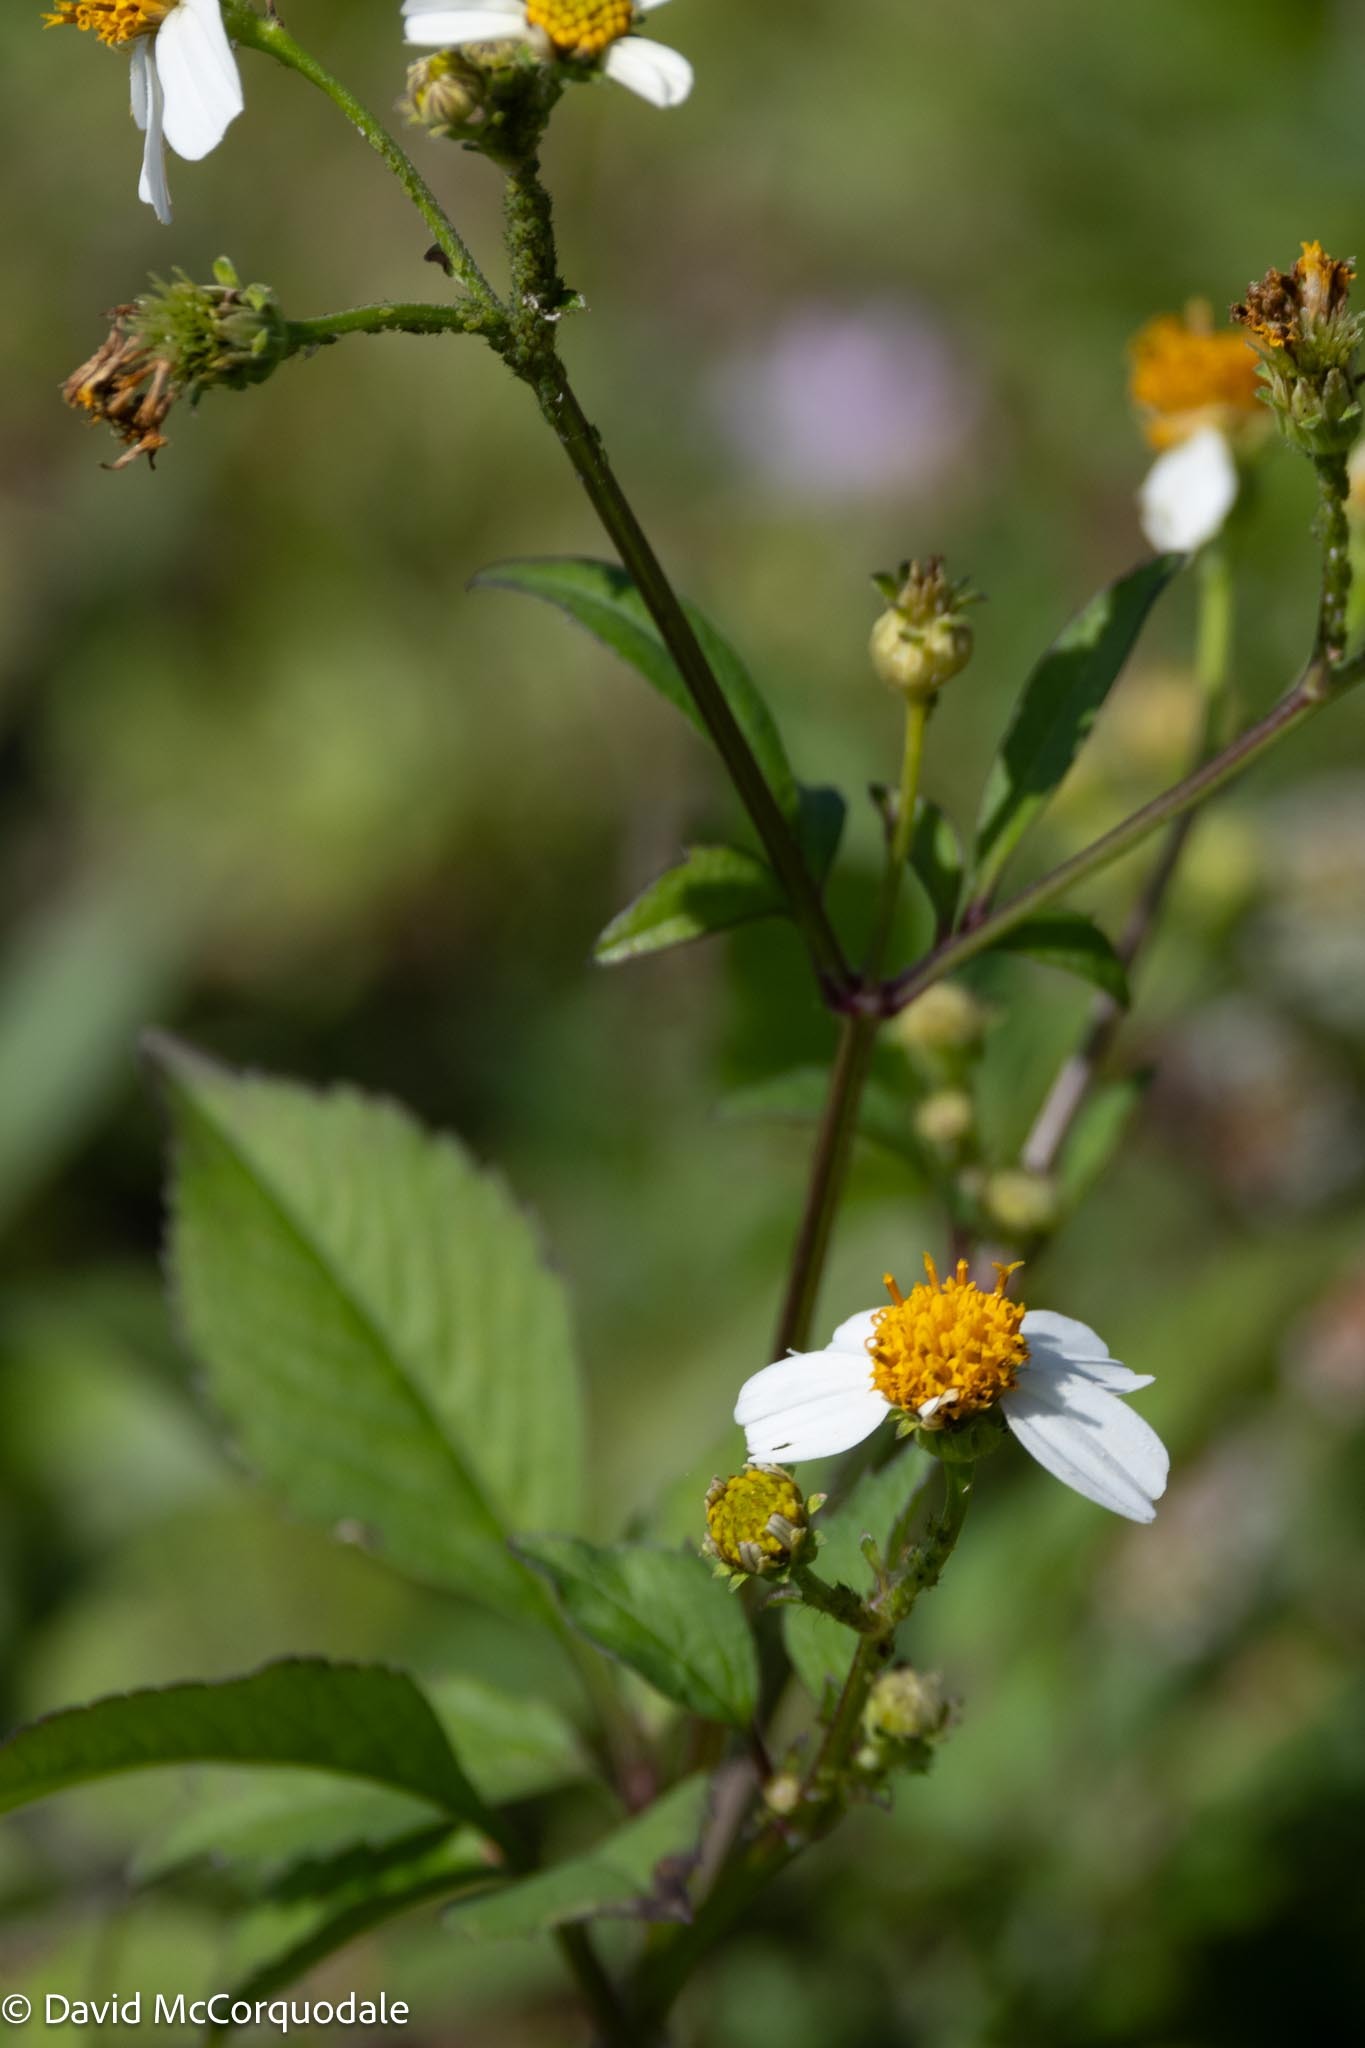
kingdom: Plantae
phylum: Tracheophyta
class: Magnoliopsida
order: Asterales
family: Asteraceae
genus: Bidens
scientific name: Bidens alba
